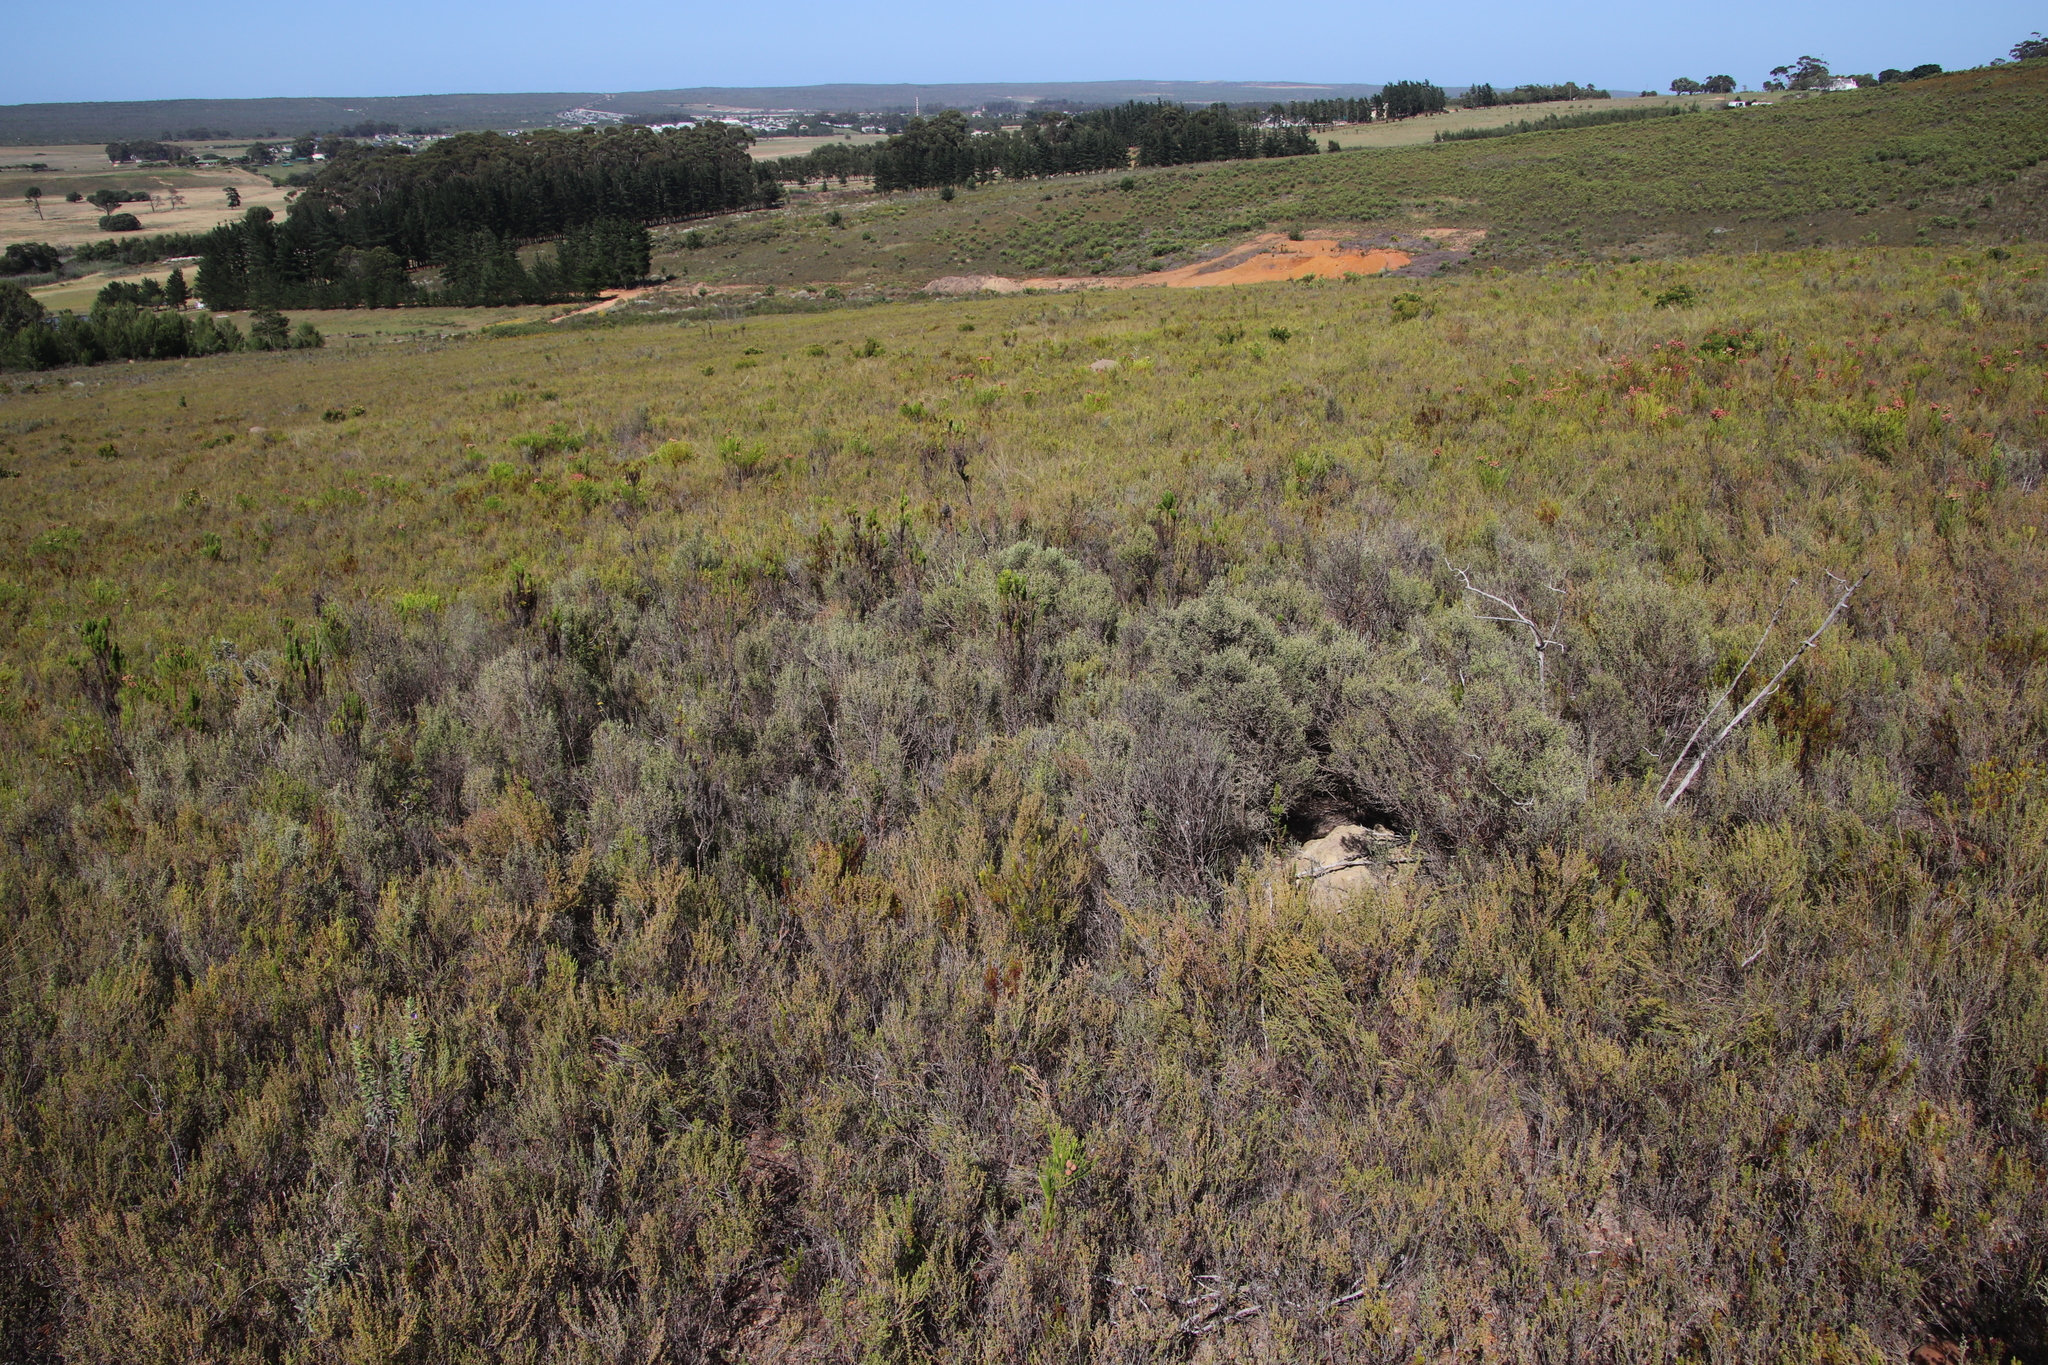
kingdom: Plantae
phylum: Tracheophyta
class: Magnoliopsida
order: Asterales
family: Asteraceae
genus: Dicerothamnus
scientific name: Dicerothamnus rhinocerotis
